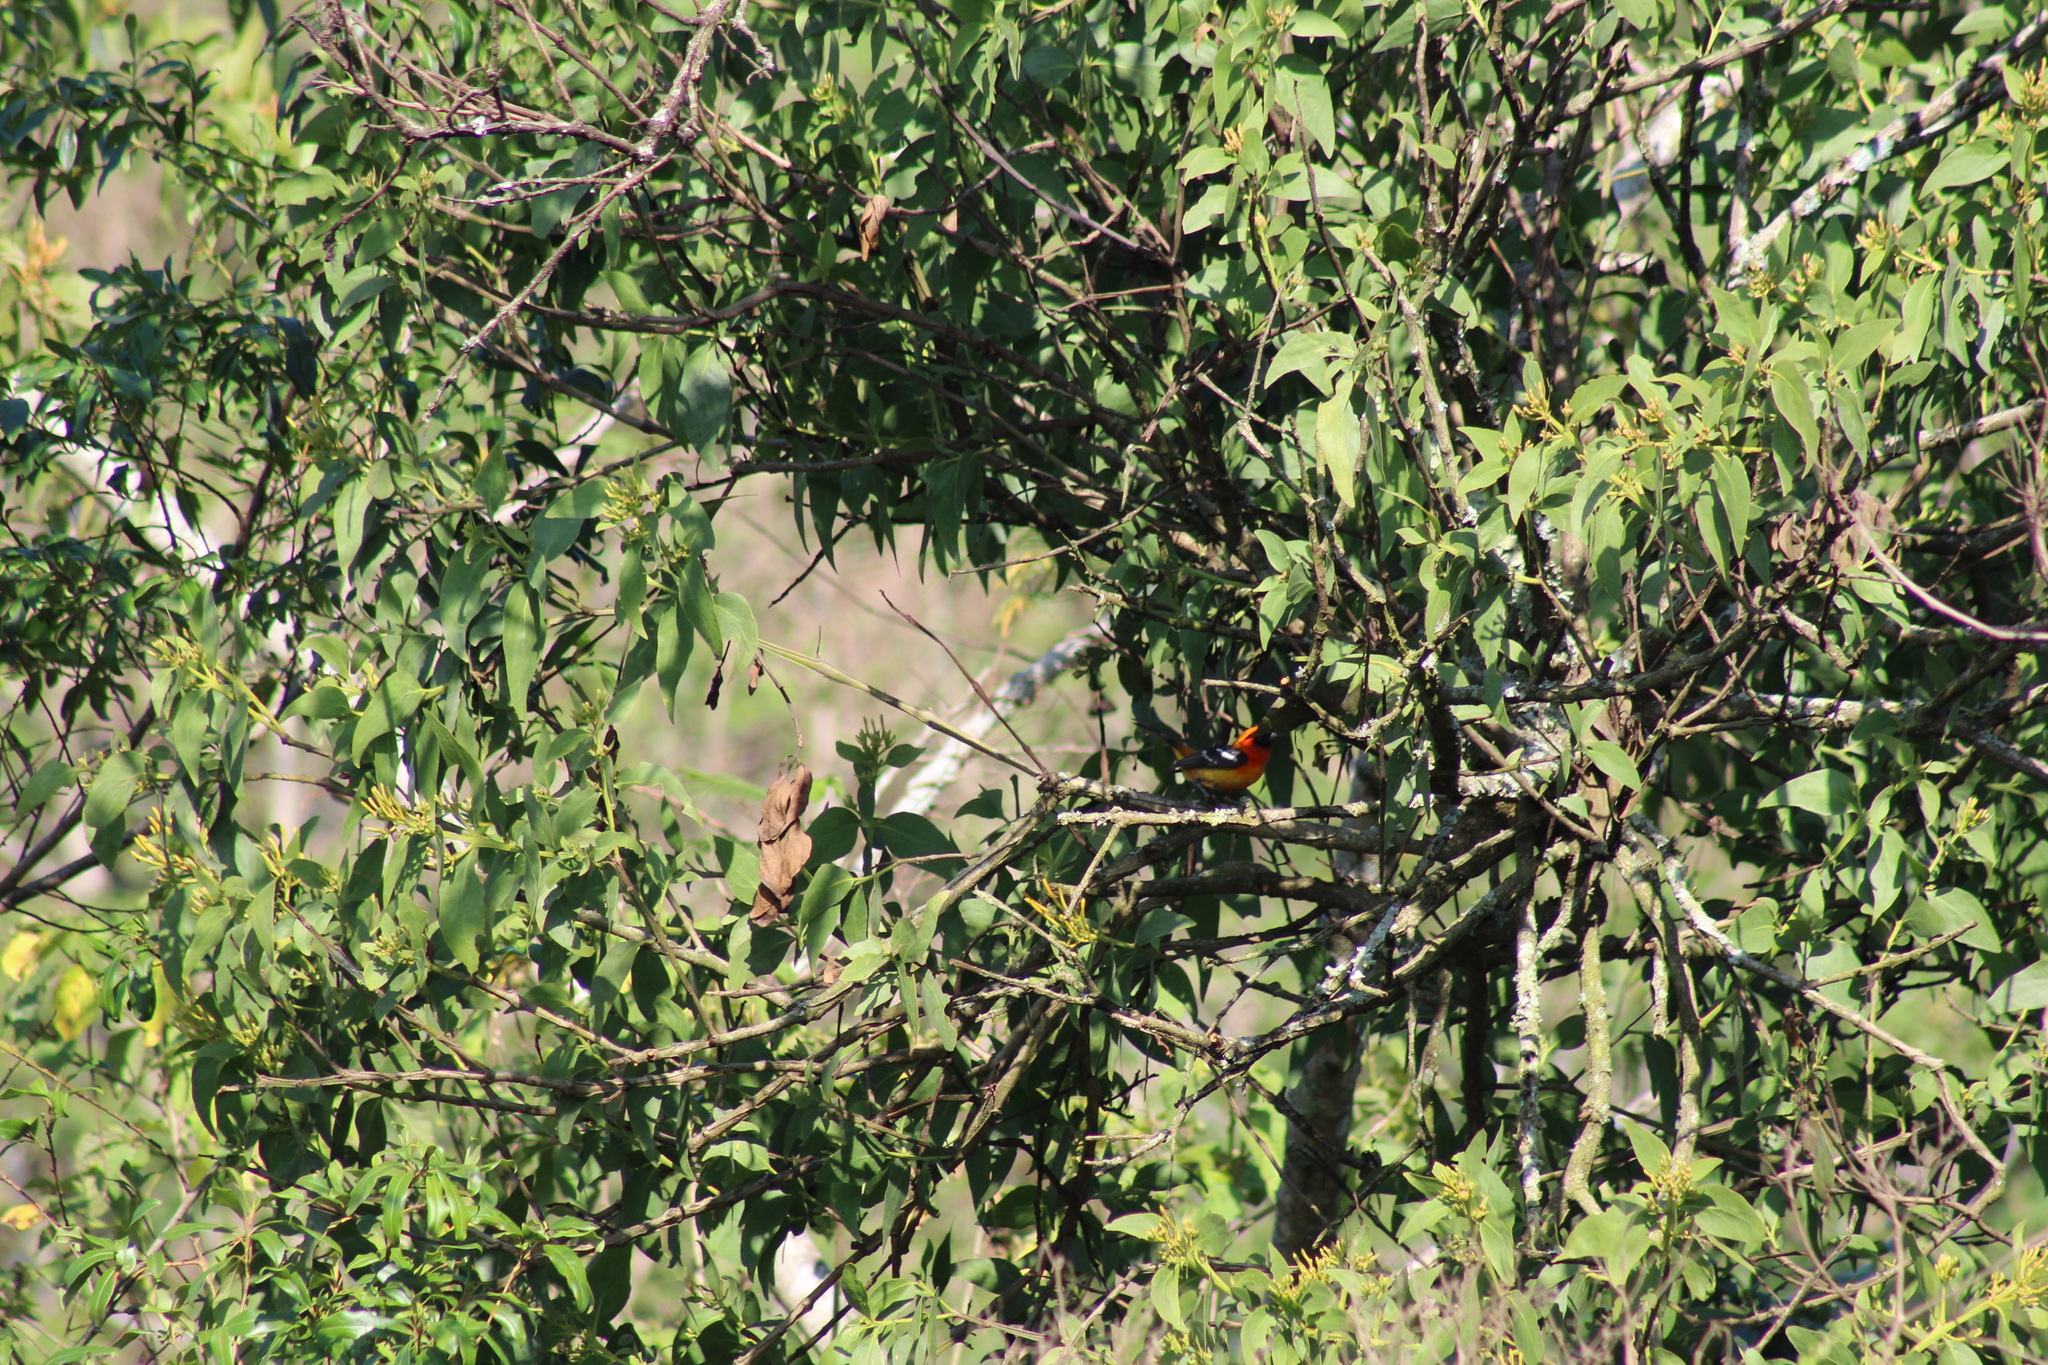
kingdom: Animalia
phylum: Chordata
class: Aves
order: Passeriformes
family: Cardinalidae
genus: Piranga
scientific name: Piranga leucoptera
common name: White-winged tanager
